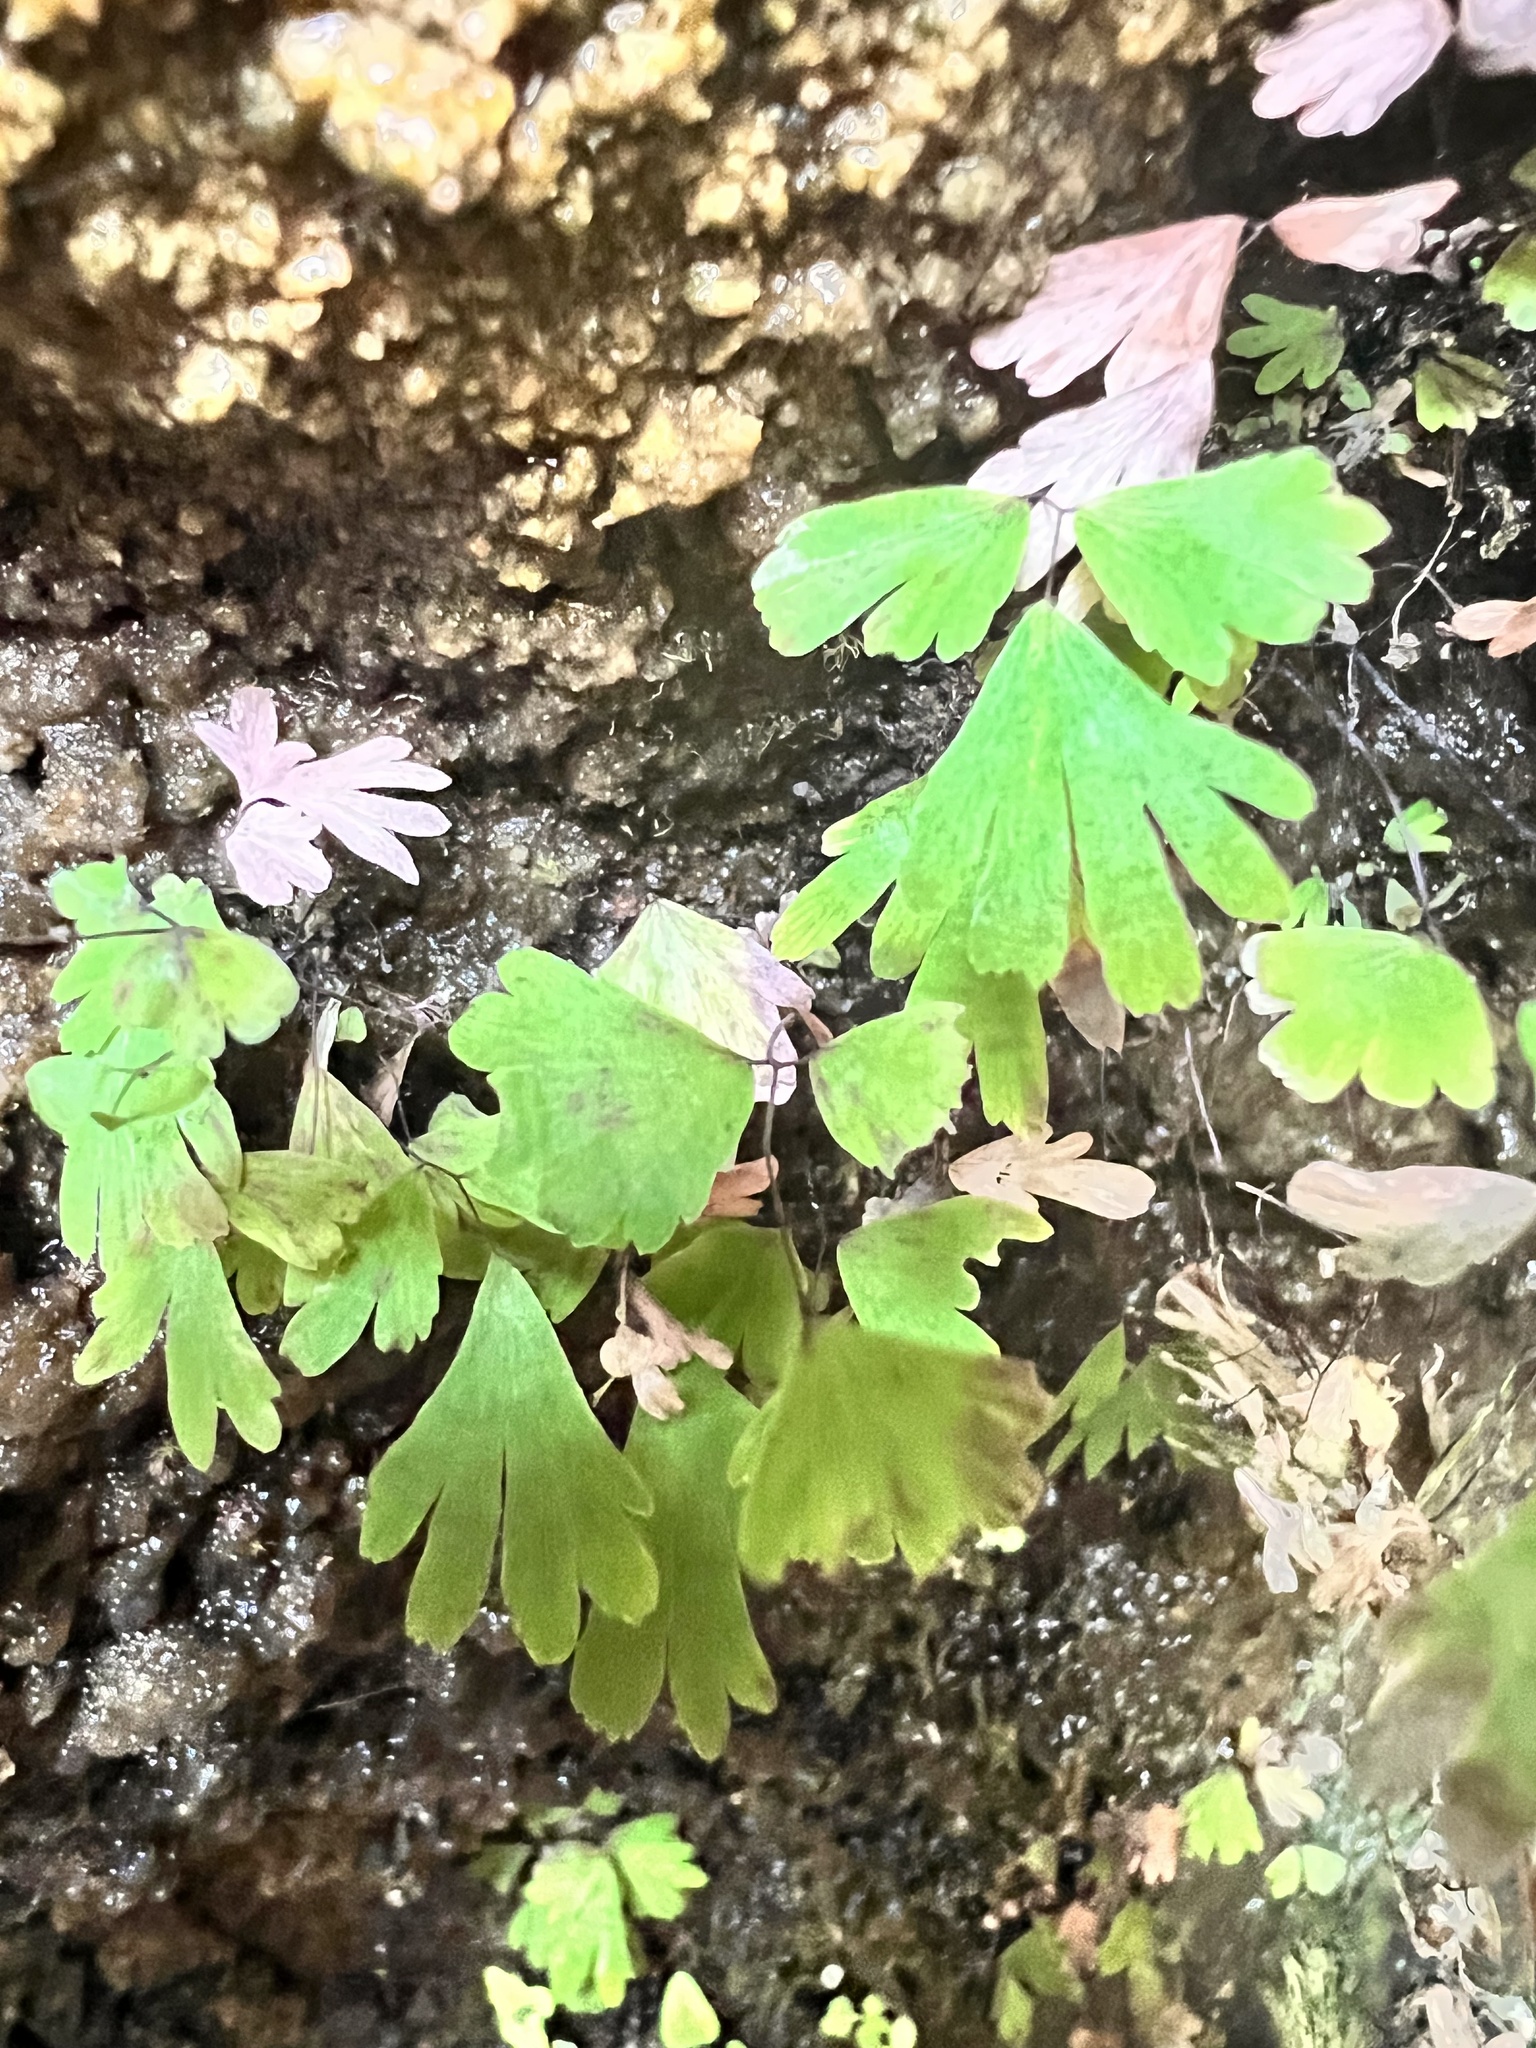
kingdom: Plantae
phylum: Tracheophyta
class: Polypodiopsida
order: Polypodiales
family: Pteridaceae
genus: Adiantum
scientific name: Adiantum capillus-veneris
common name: Maidenhair fern
